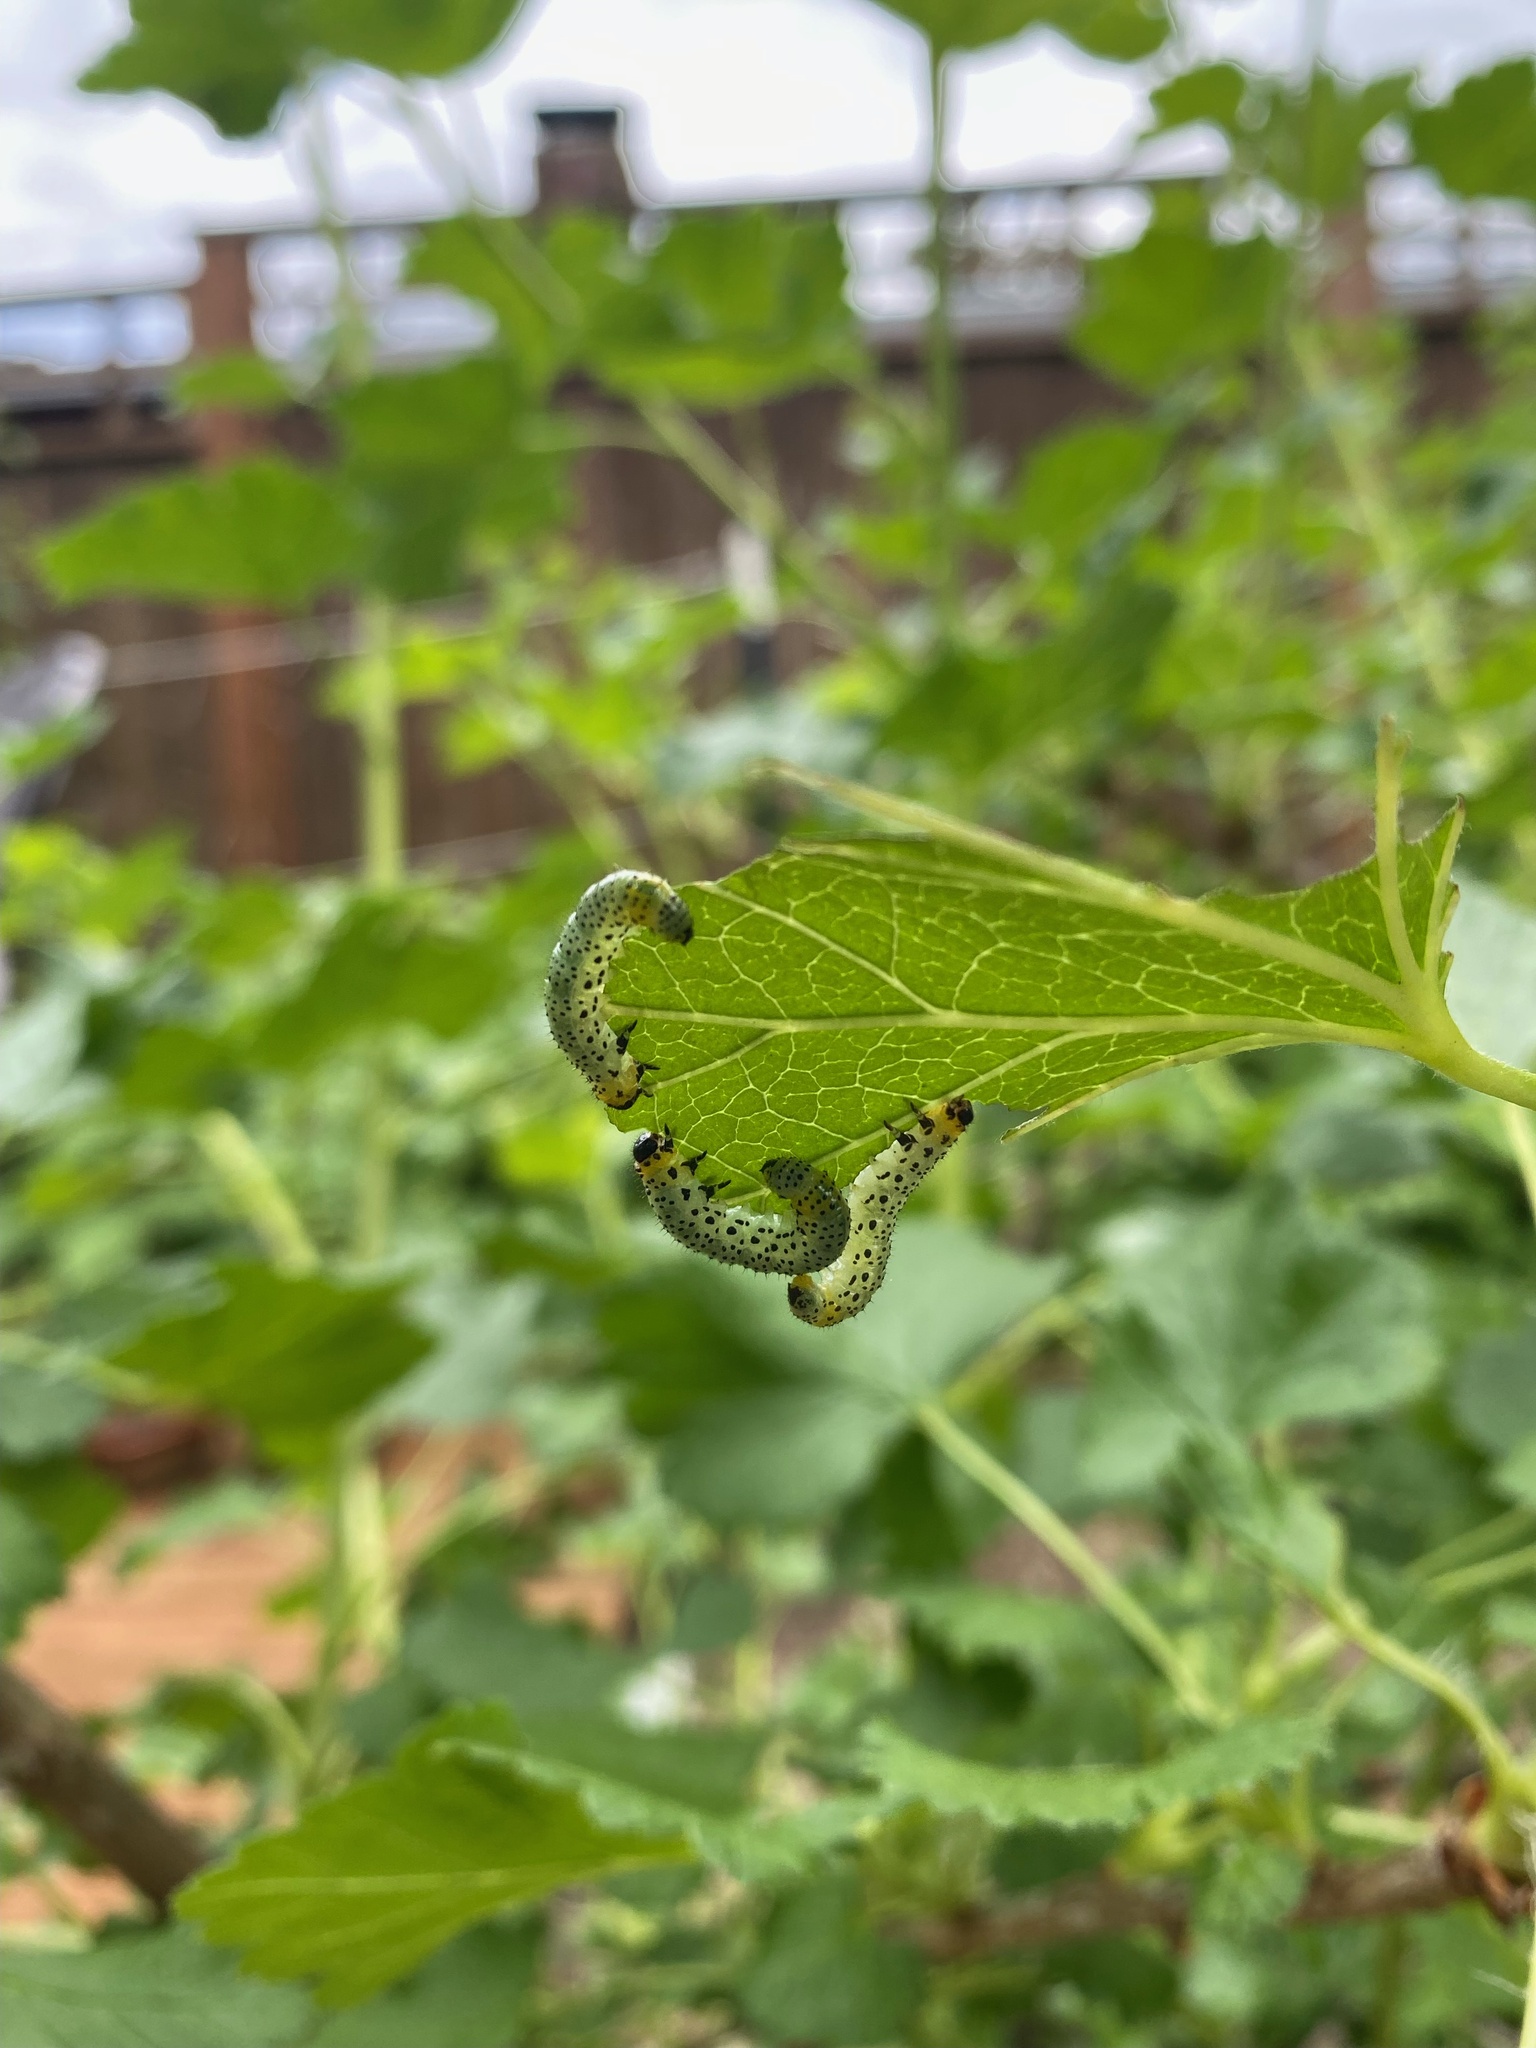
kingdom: Animalia
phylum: Arthropoda
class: Insecta
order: Hymenoptera
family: Tenthredinidae
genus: Nematus
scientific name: Nematus ribesii
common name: Imported currantworm
